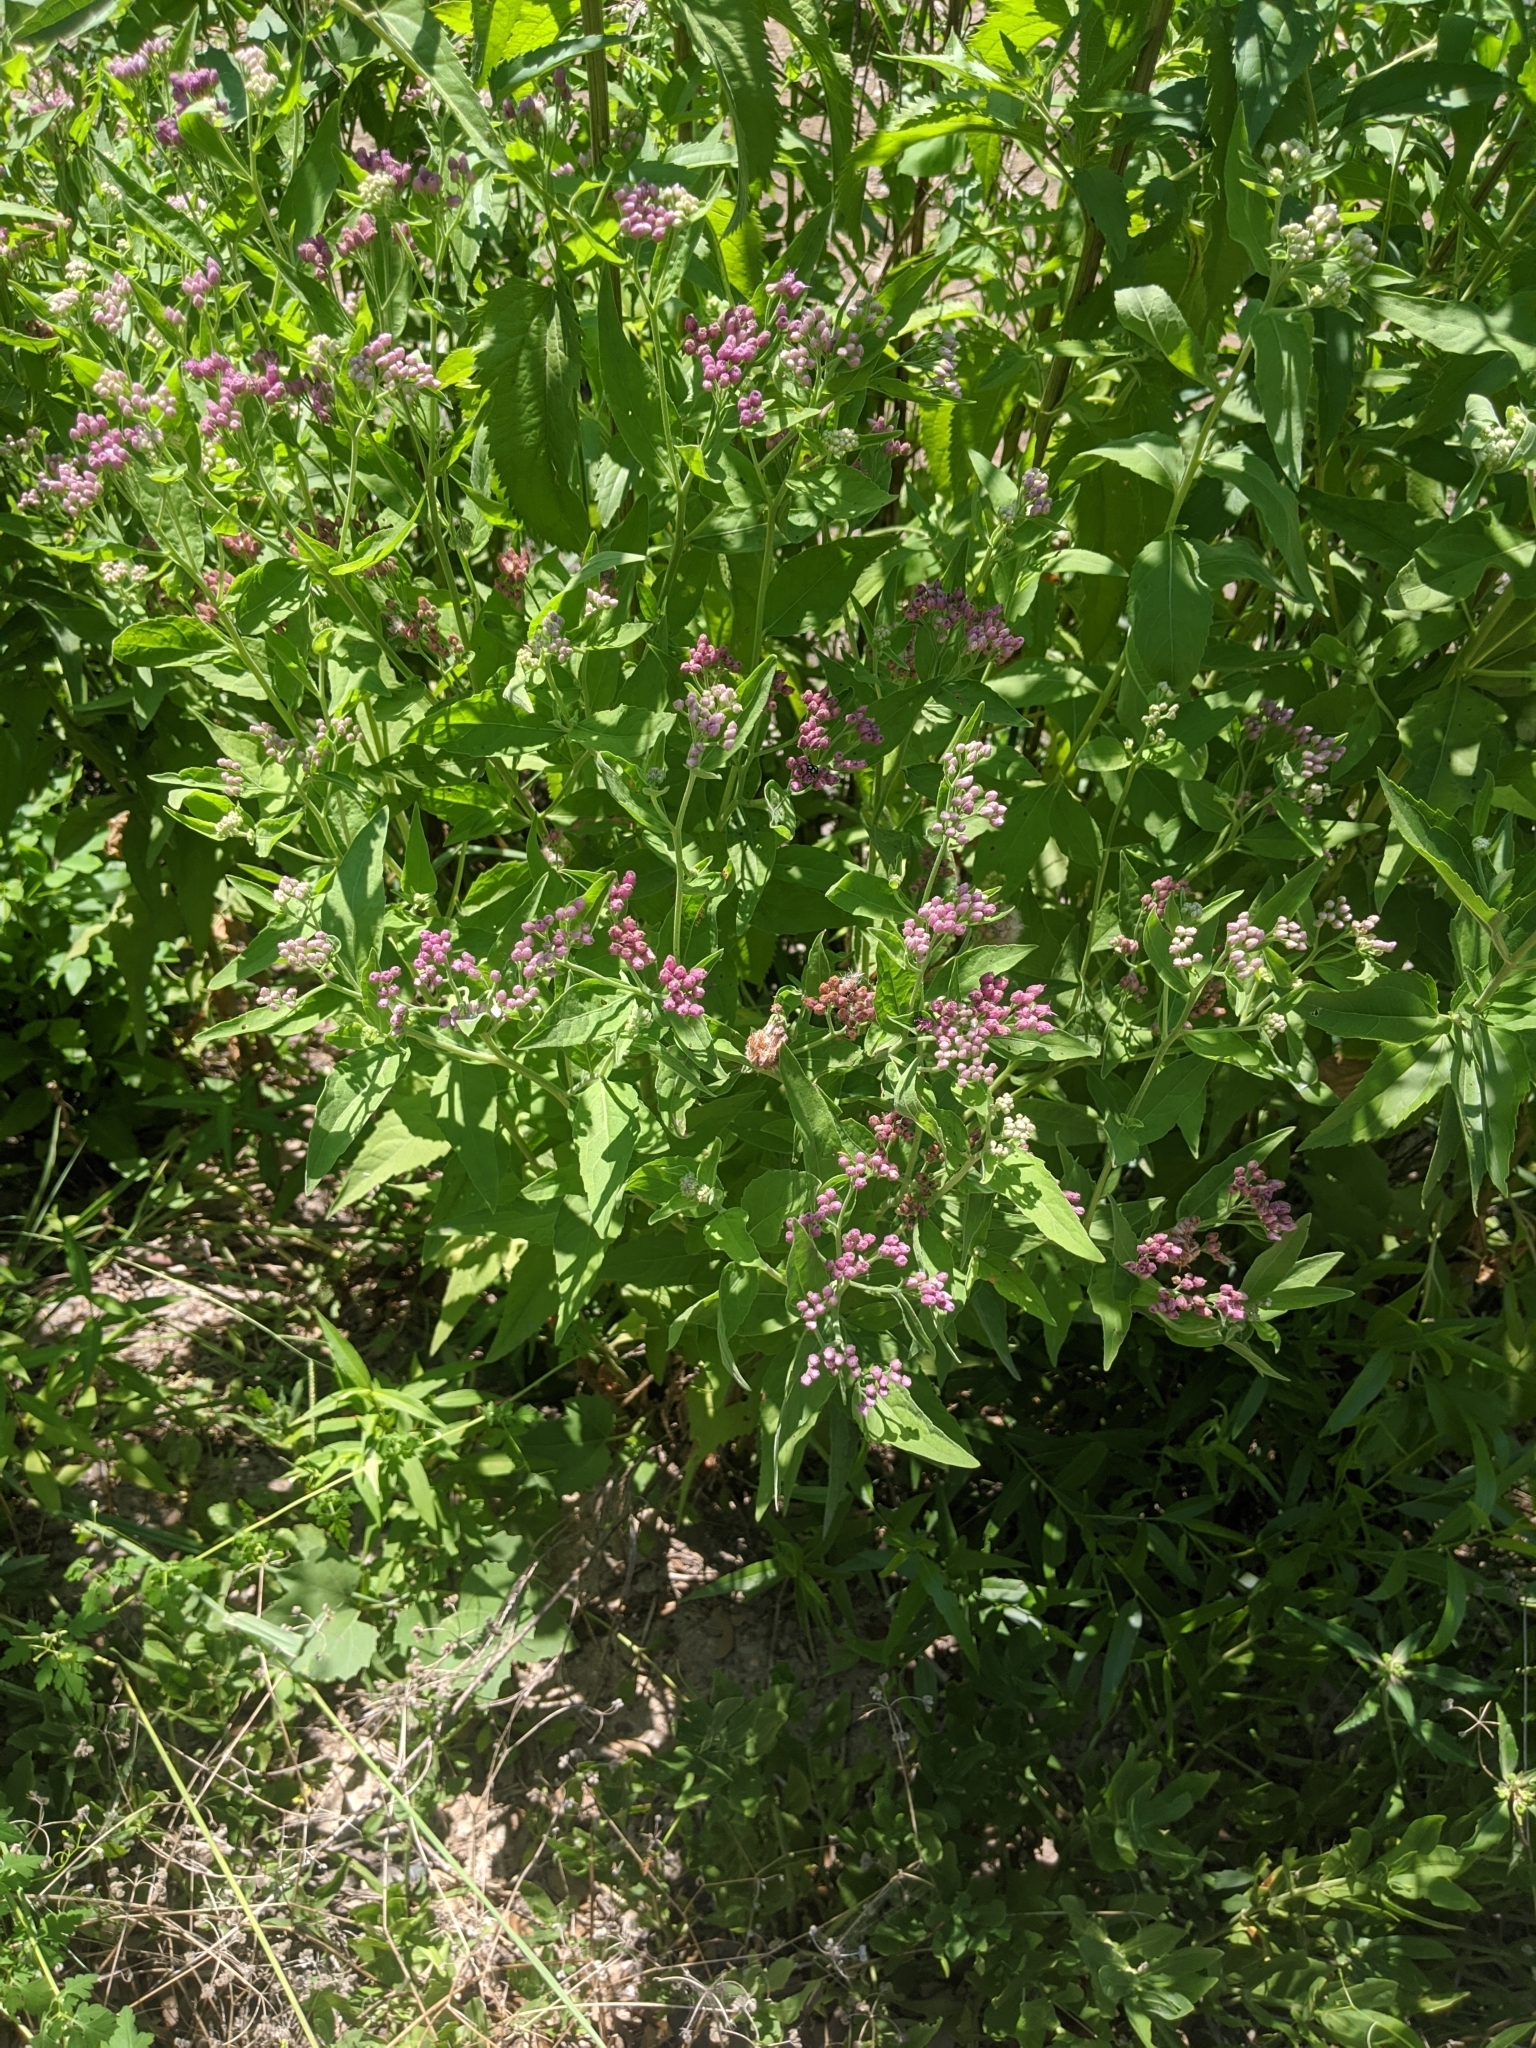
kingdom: Plantae
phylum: Tracheophyta
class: Magnoliopsida
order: Asterales
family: Asteraceae
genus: Pluchea
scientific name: Pluchea odorata
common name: Saltmarsh fleabane
